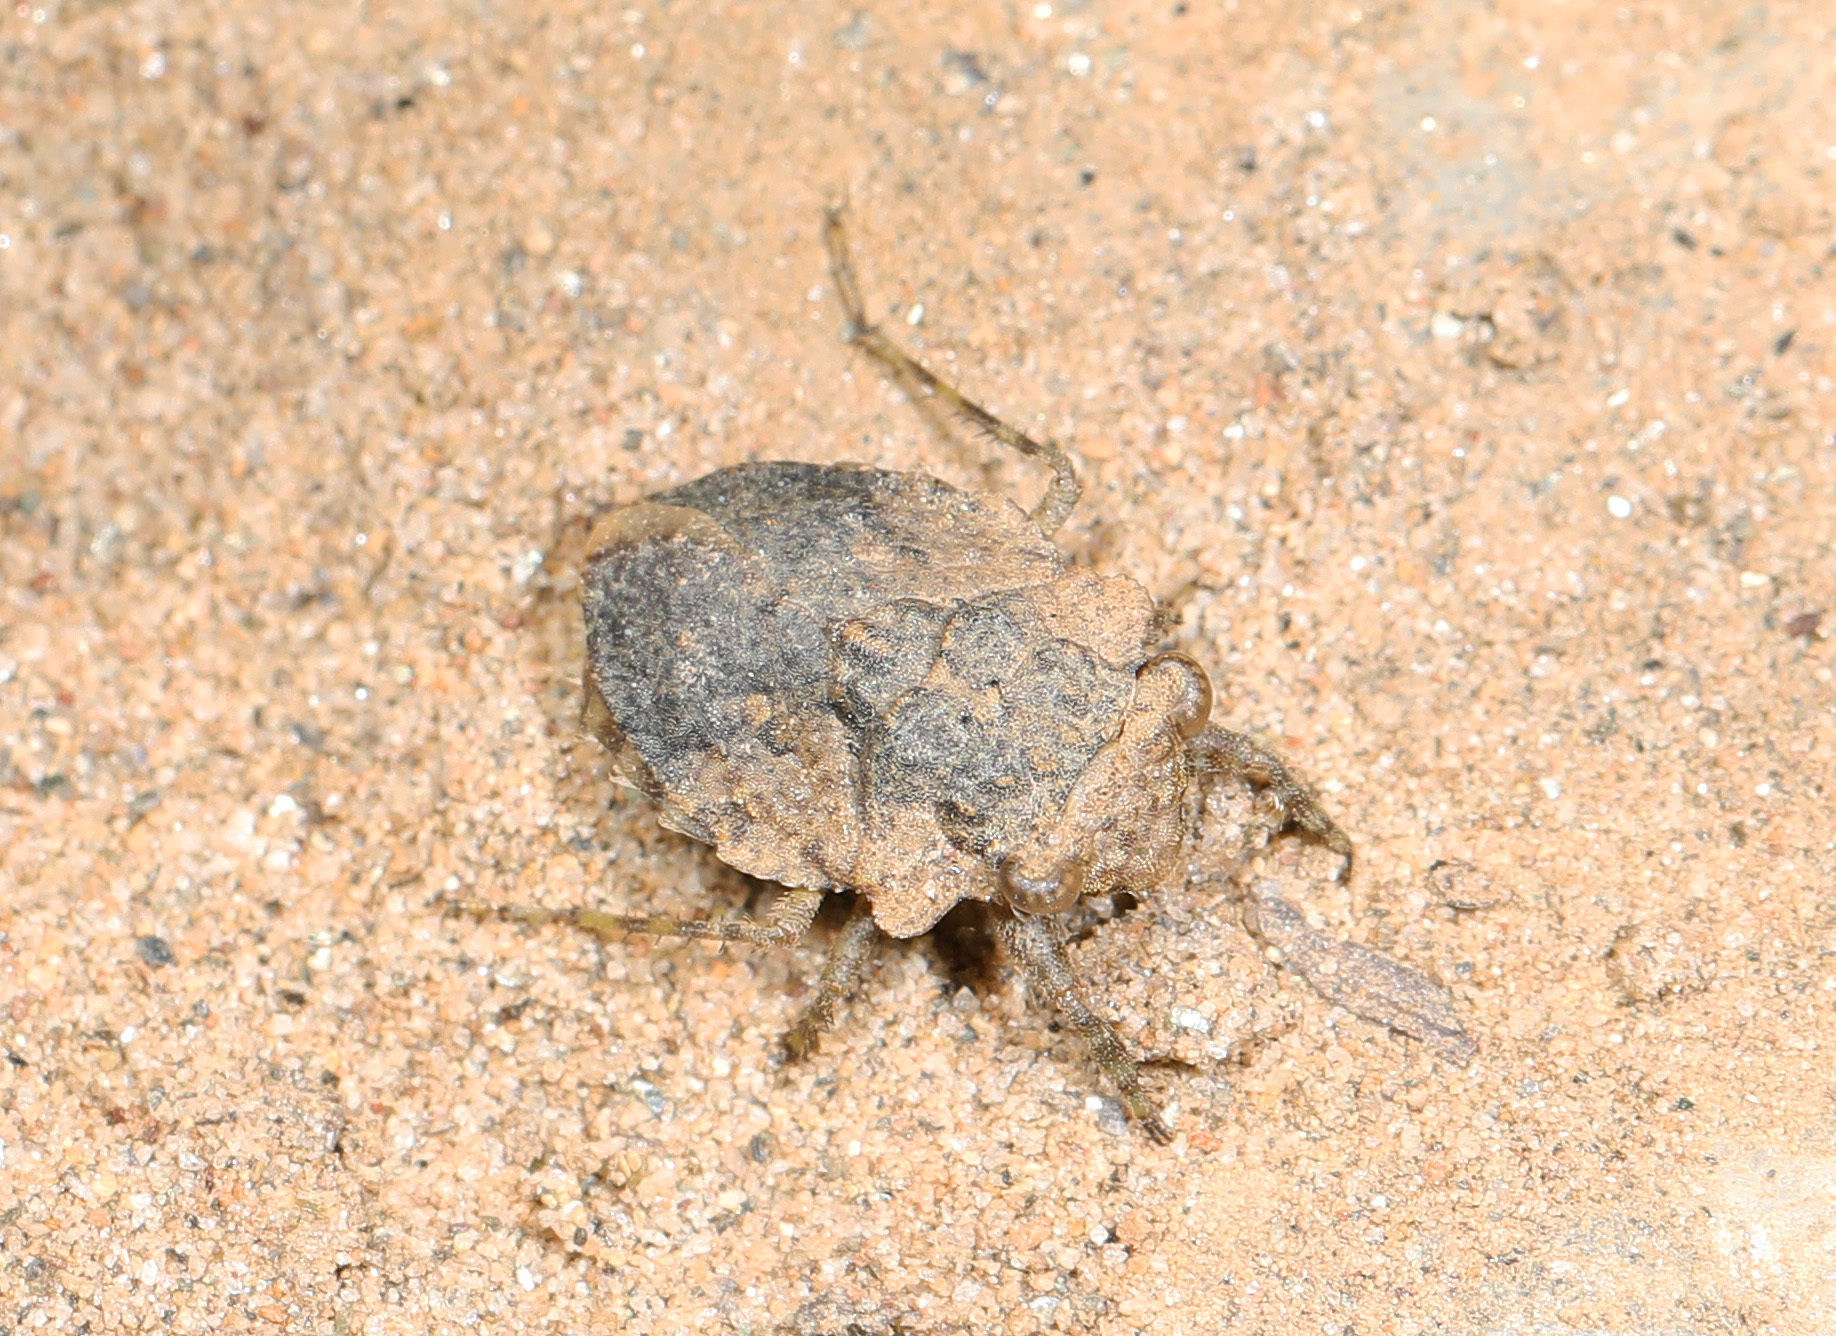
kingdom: Animalia
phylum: Arthropoda
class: Insecta
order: Hemiptera
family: Gelastocoridae
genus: Gelastocoris
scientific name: Gelastocoris oculatus
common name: Toad bug
